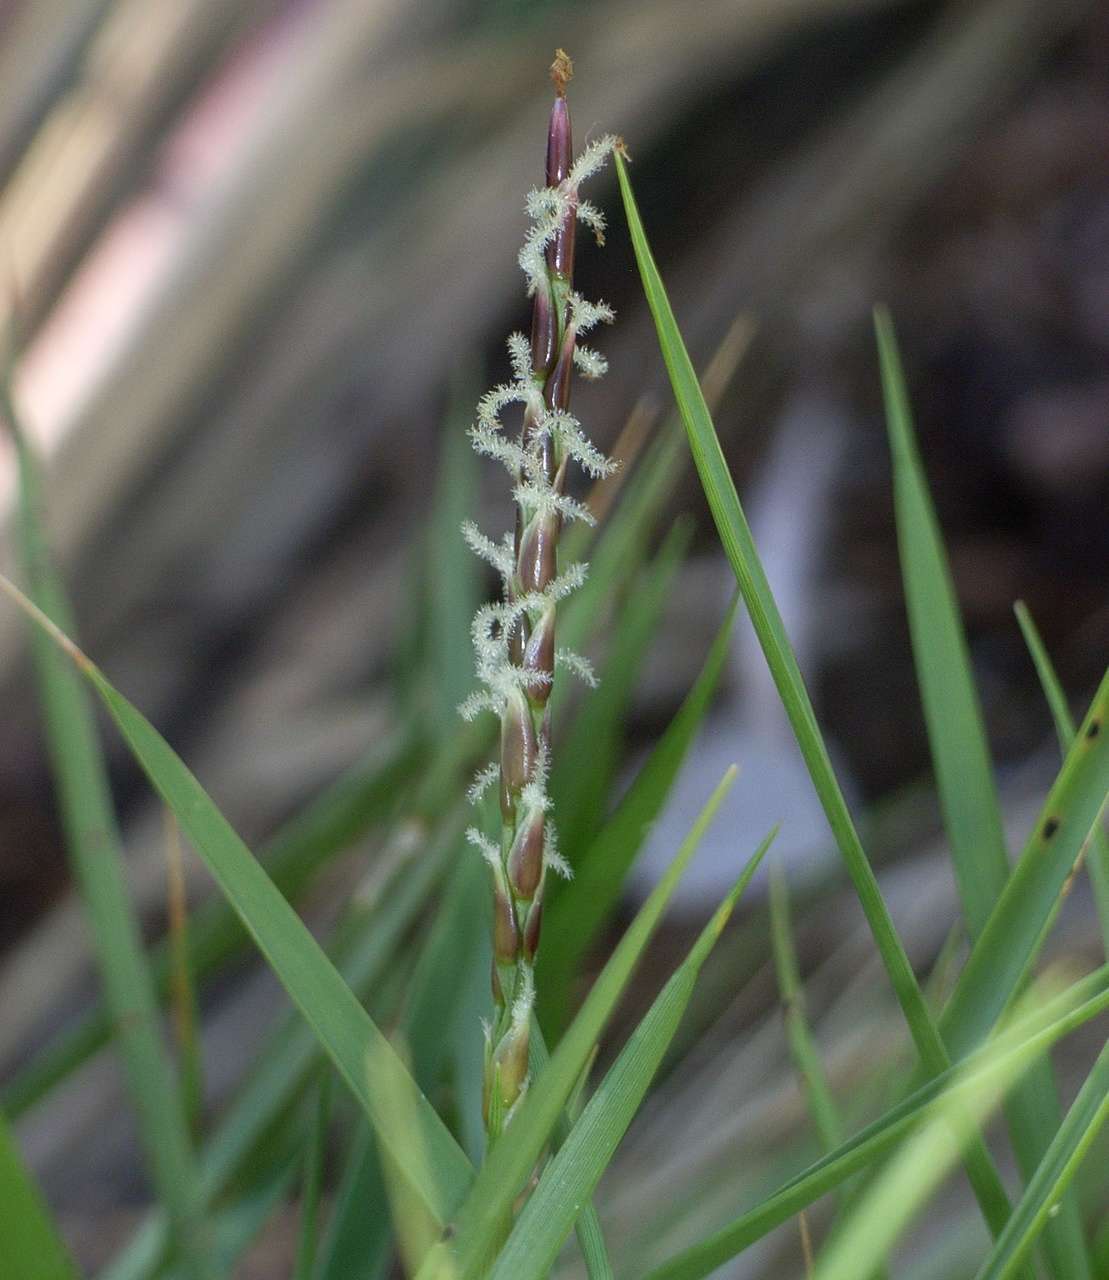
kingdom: Plantae
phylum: Tracheophyta
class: Liliopsida
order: Poales
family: Poaceae
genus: Zoysia
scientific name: Zoysia macrantha
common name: Korean lawn grass
